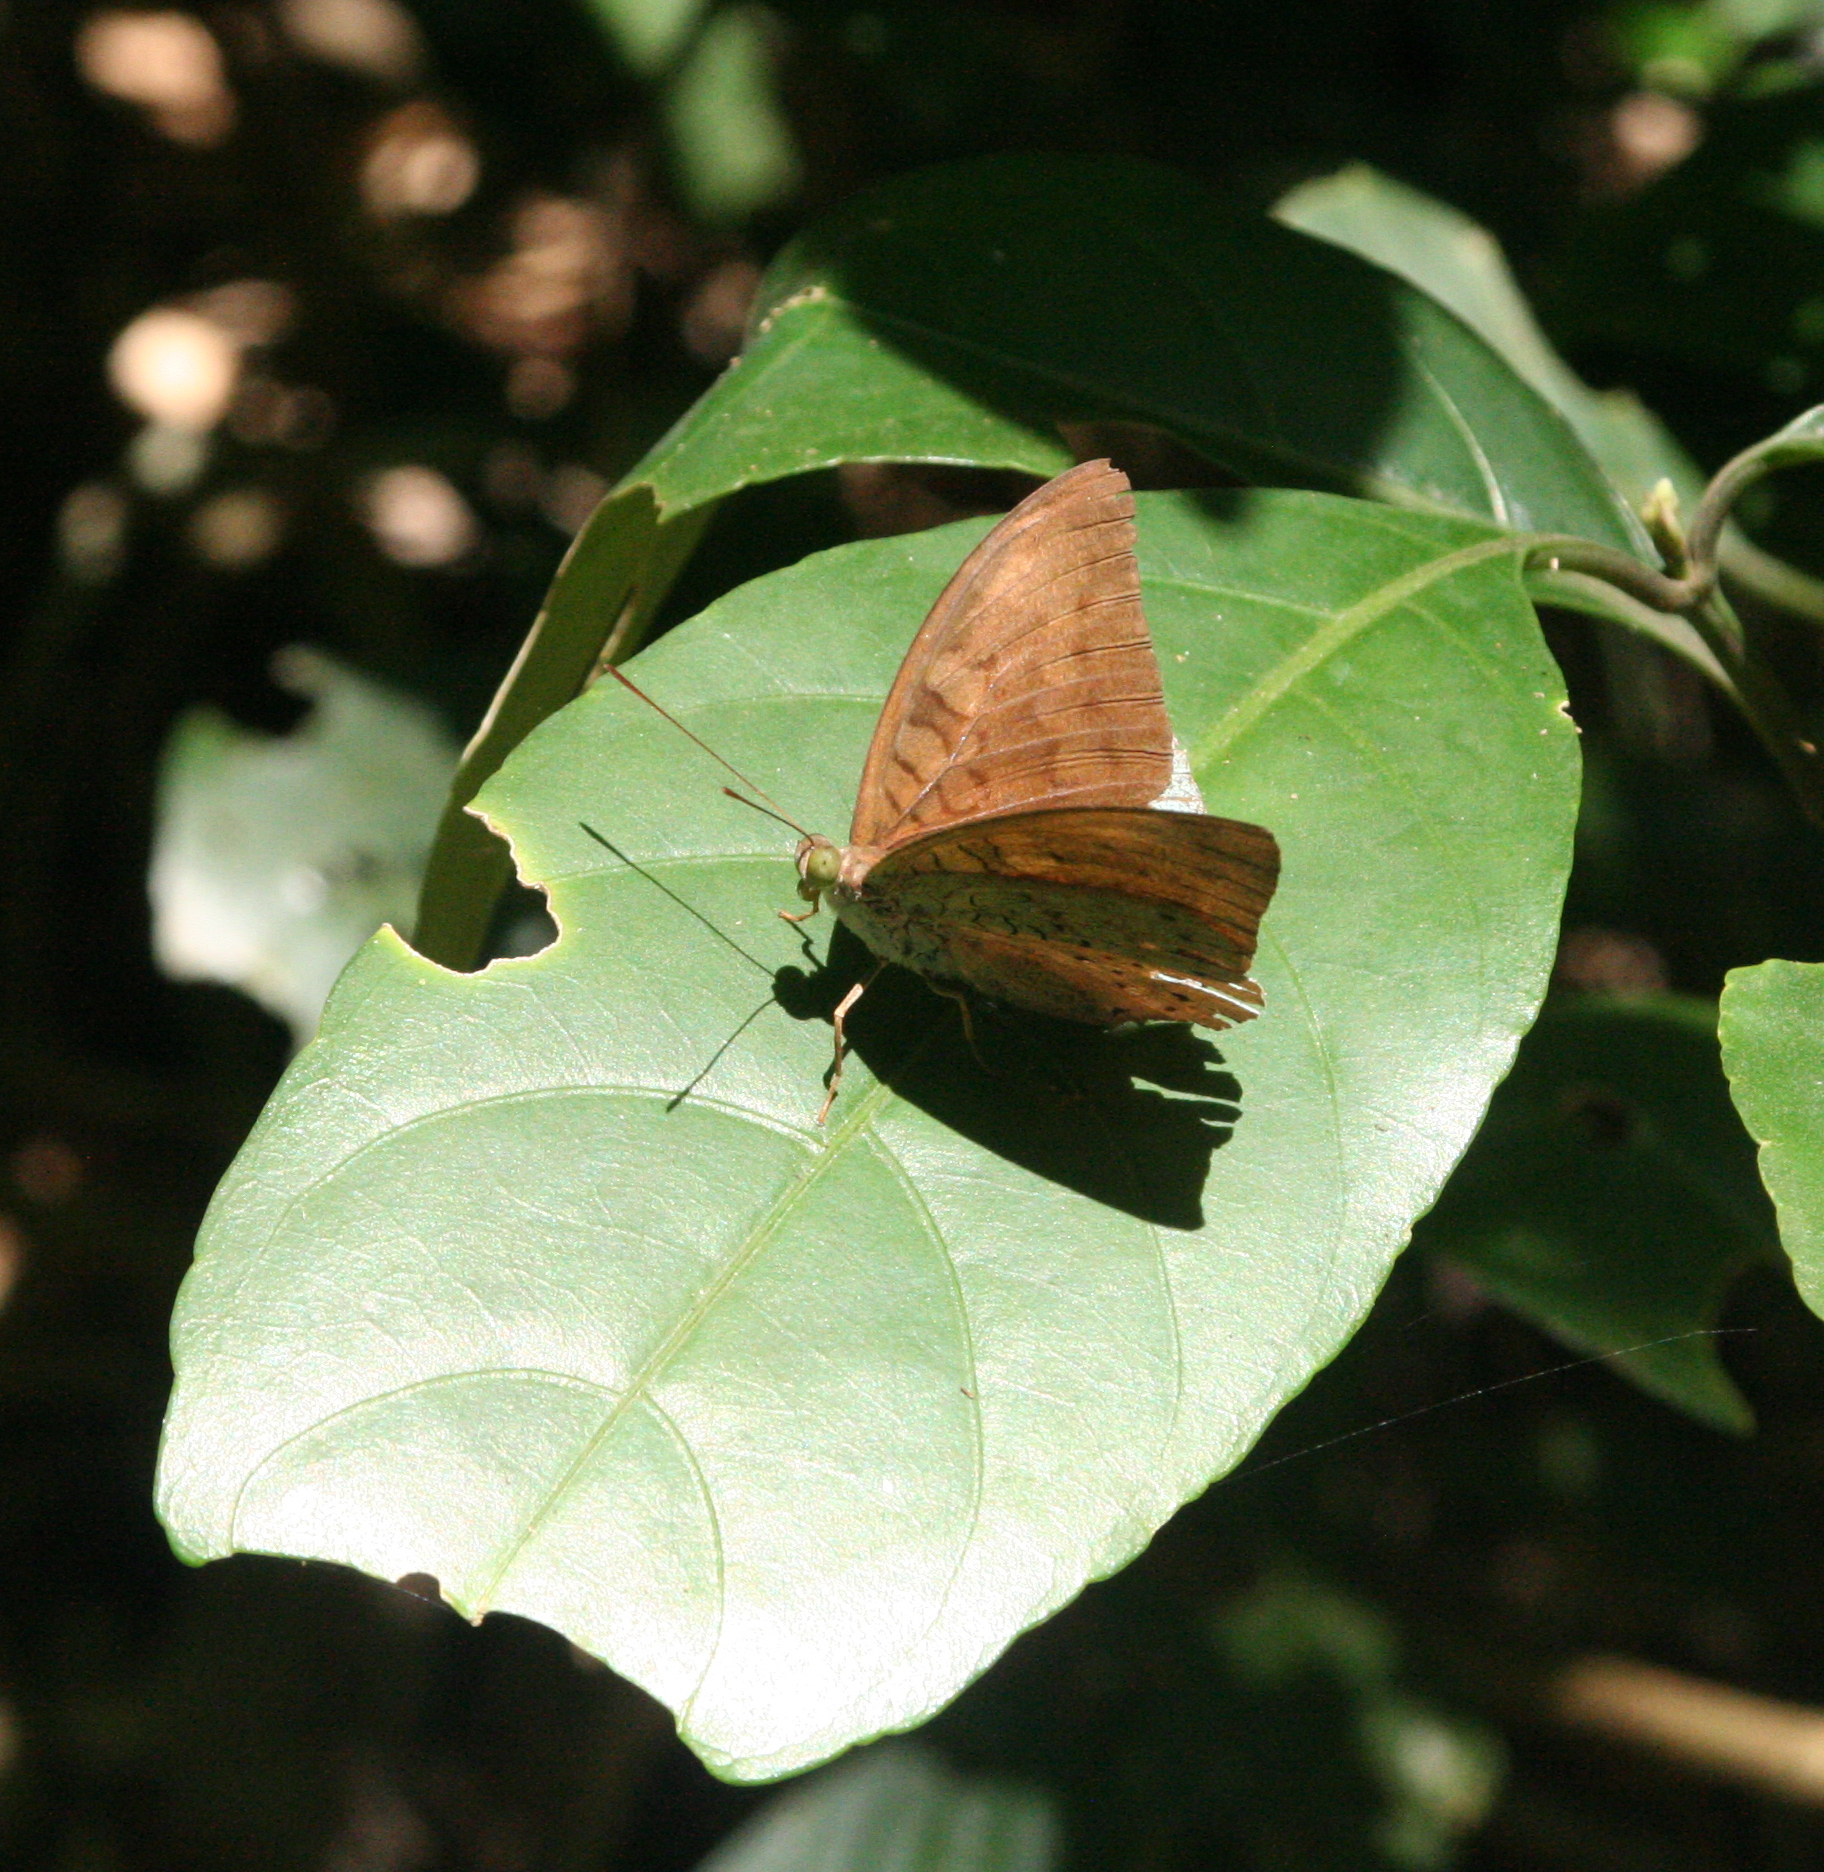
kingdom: Animalia
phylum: Arthropoda
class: Insecta
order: Lepidoptera
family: Nymphalidae
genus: Tanaecia
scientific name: Tanaecia julii
